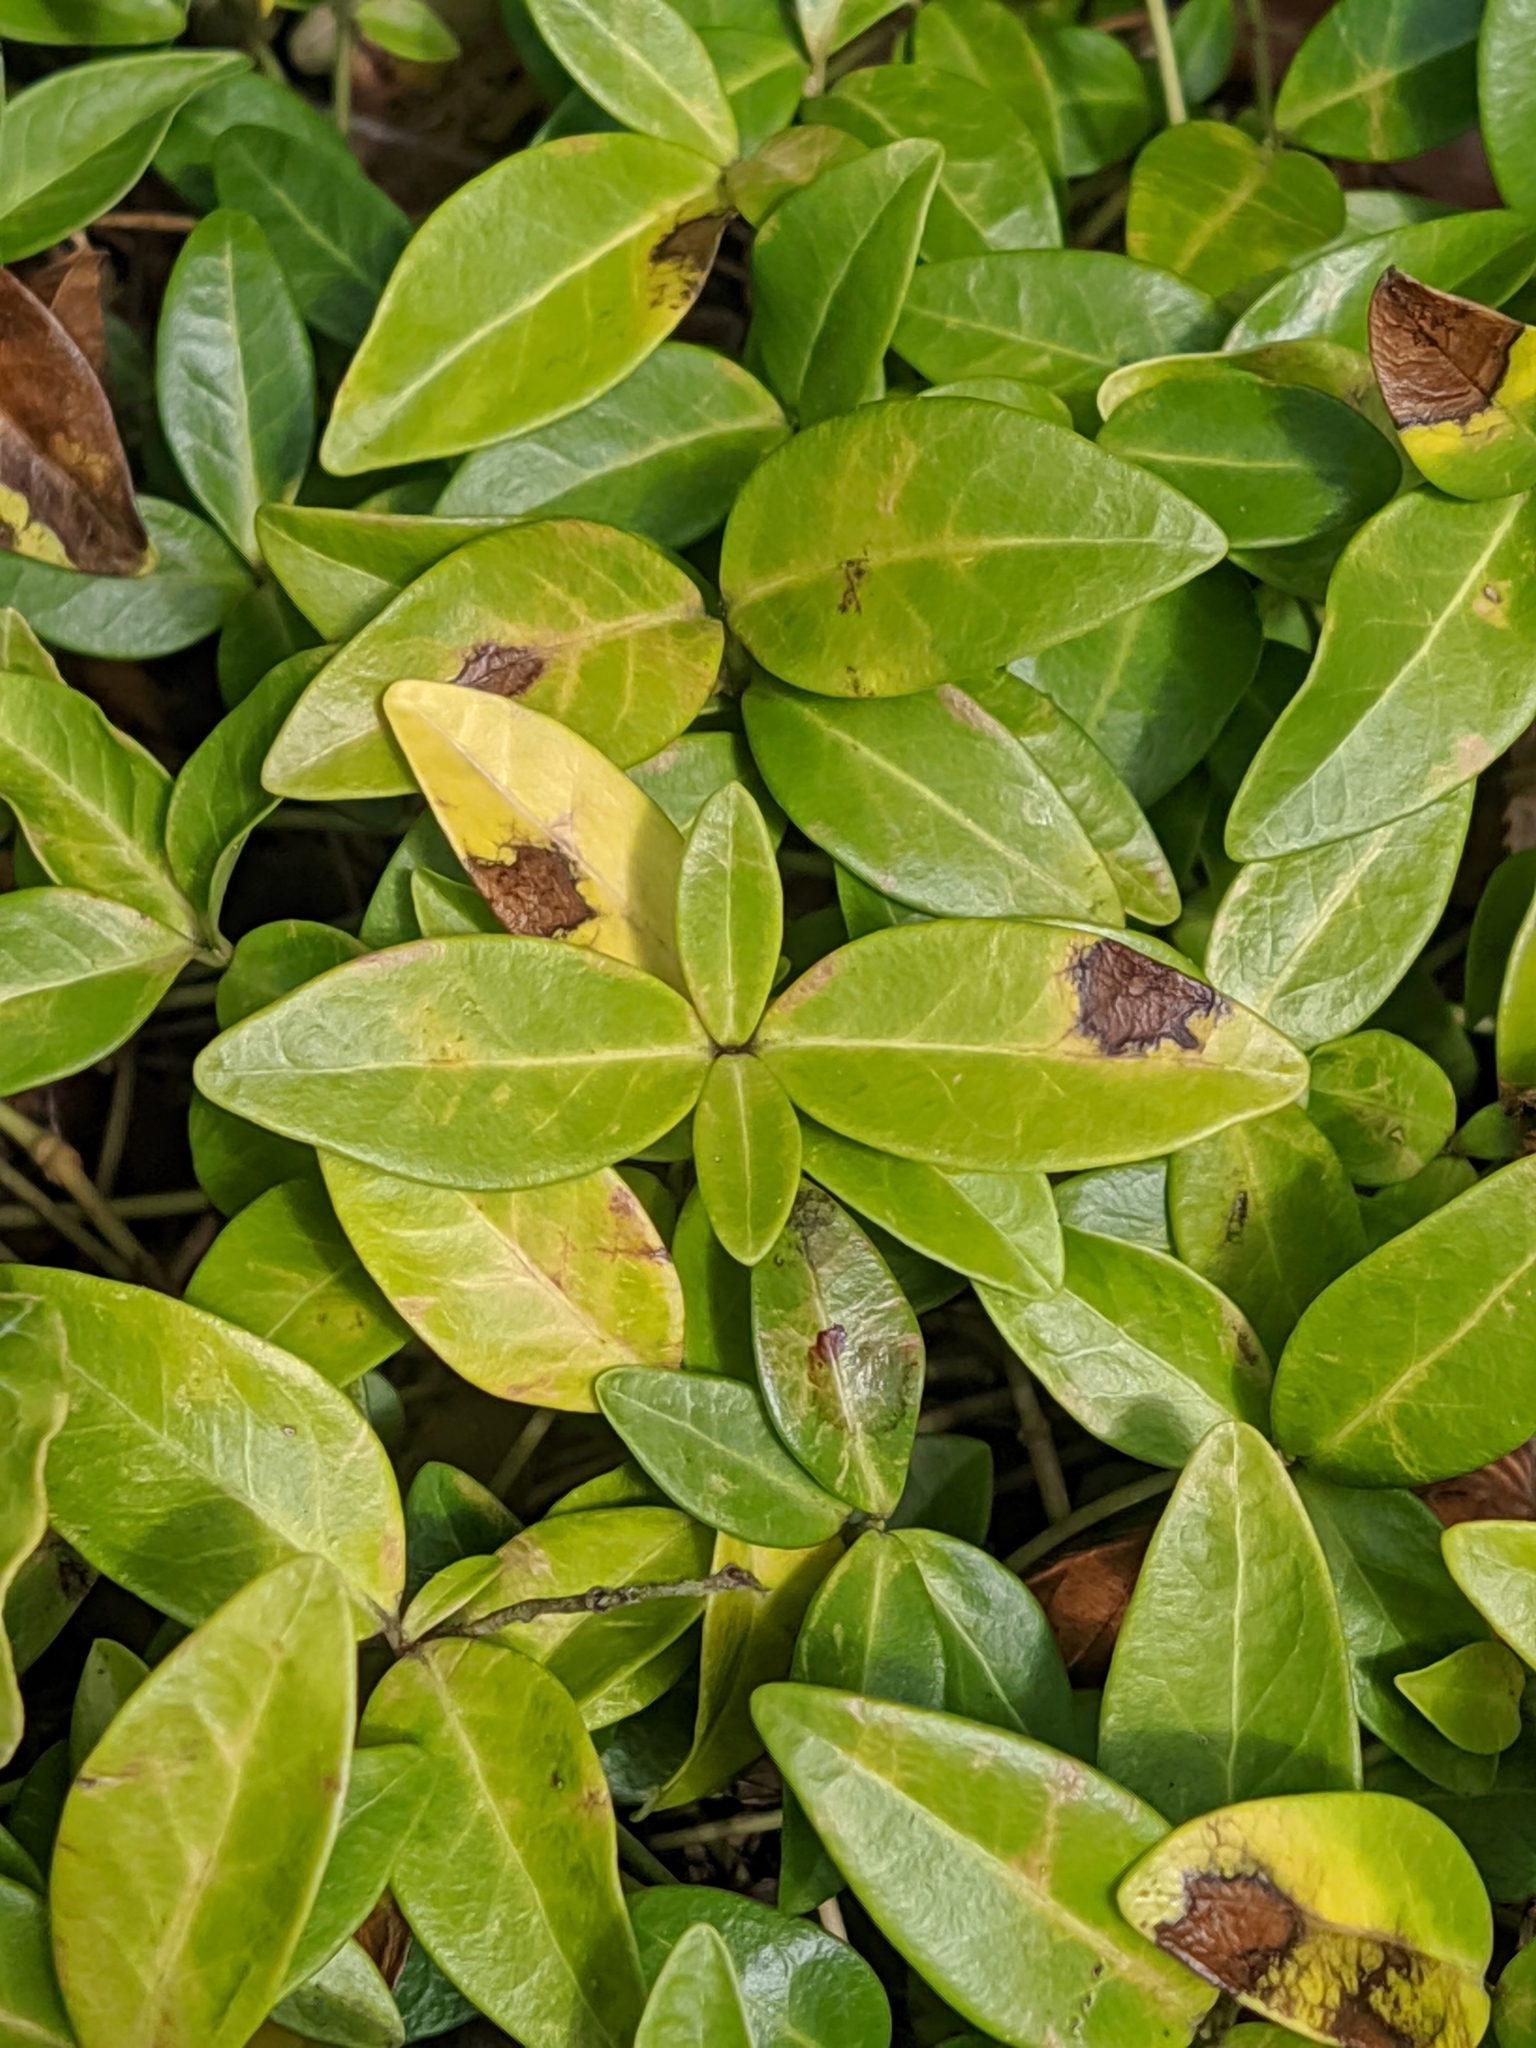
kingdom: Plantae
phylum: Tracheophyta
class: Magnoliopsida
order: Gentianales
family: Apocynaceae
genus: Vinca
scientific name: Vinca minor
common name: Lesser periwinkle
